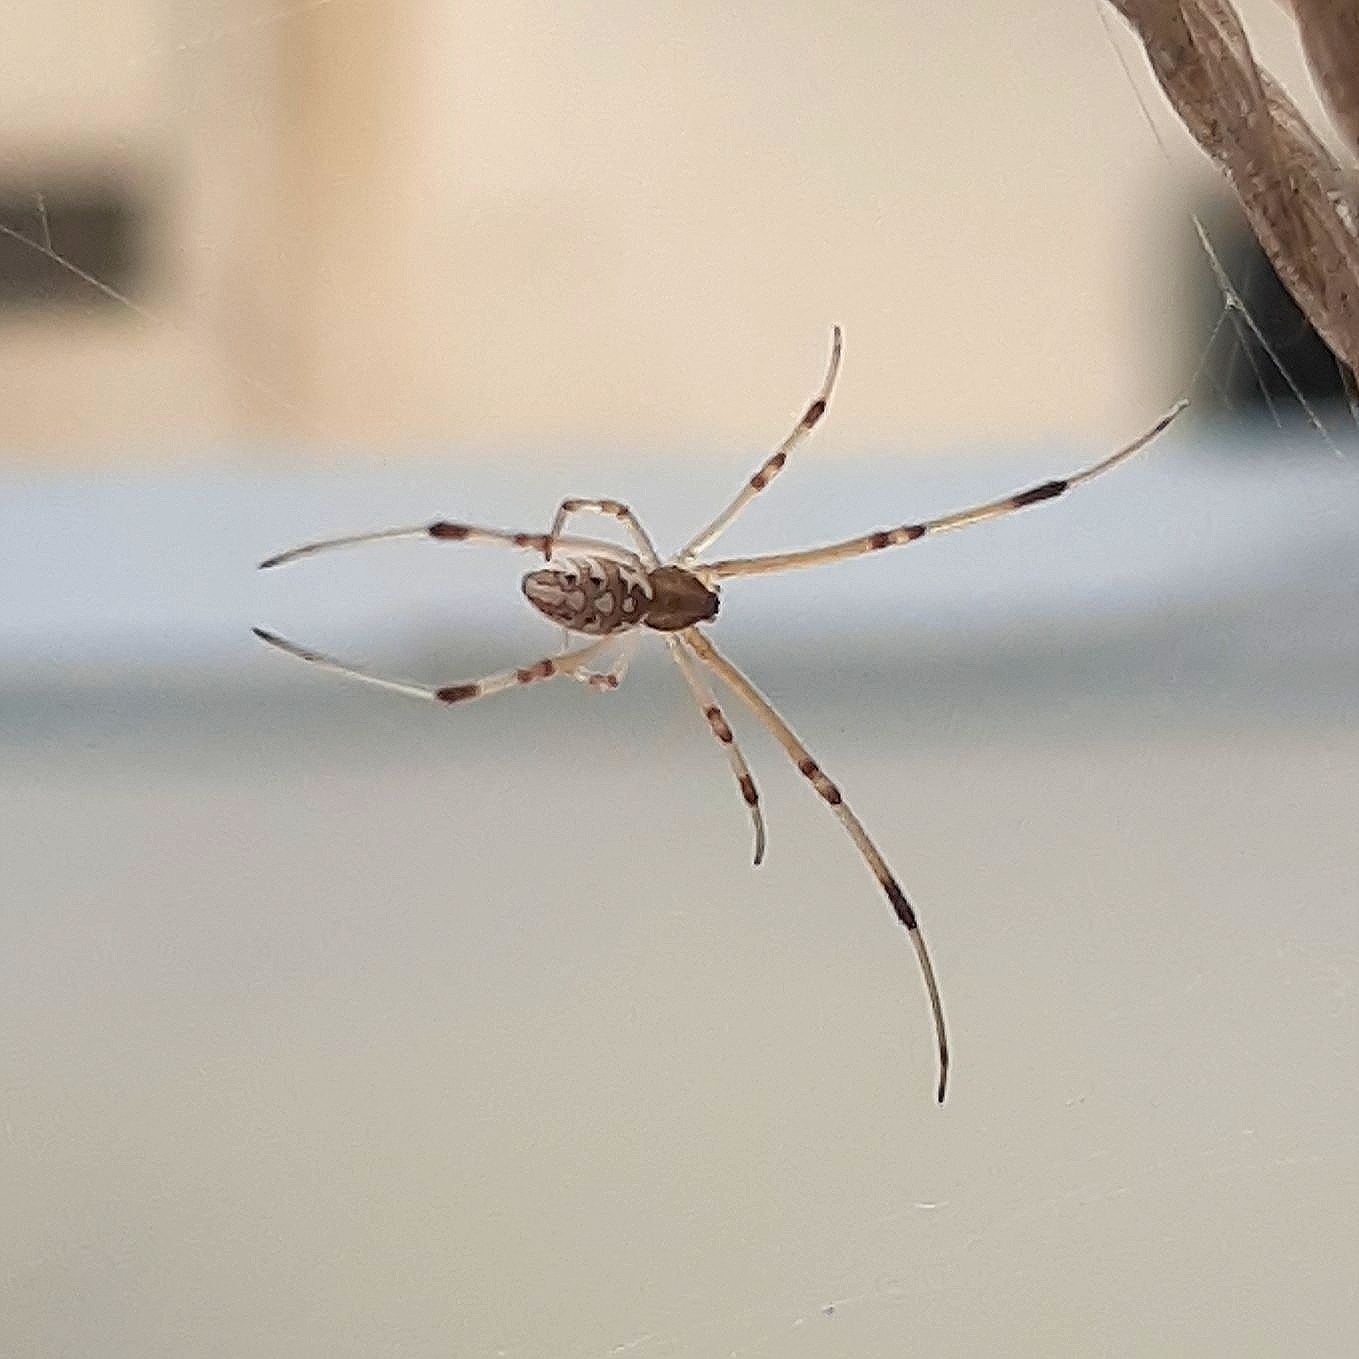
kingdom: Animalia
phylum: Arthropoda
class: Arachnida
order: Araneae
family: Theridiidae
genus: Latrodectus
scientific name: Latrodectus geometricus
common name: Brown widow spider
